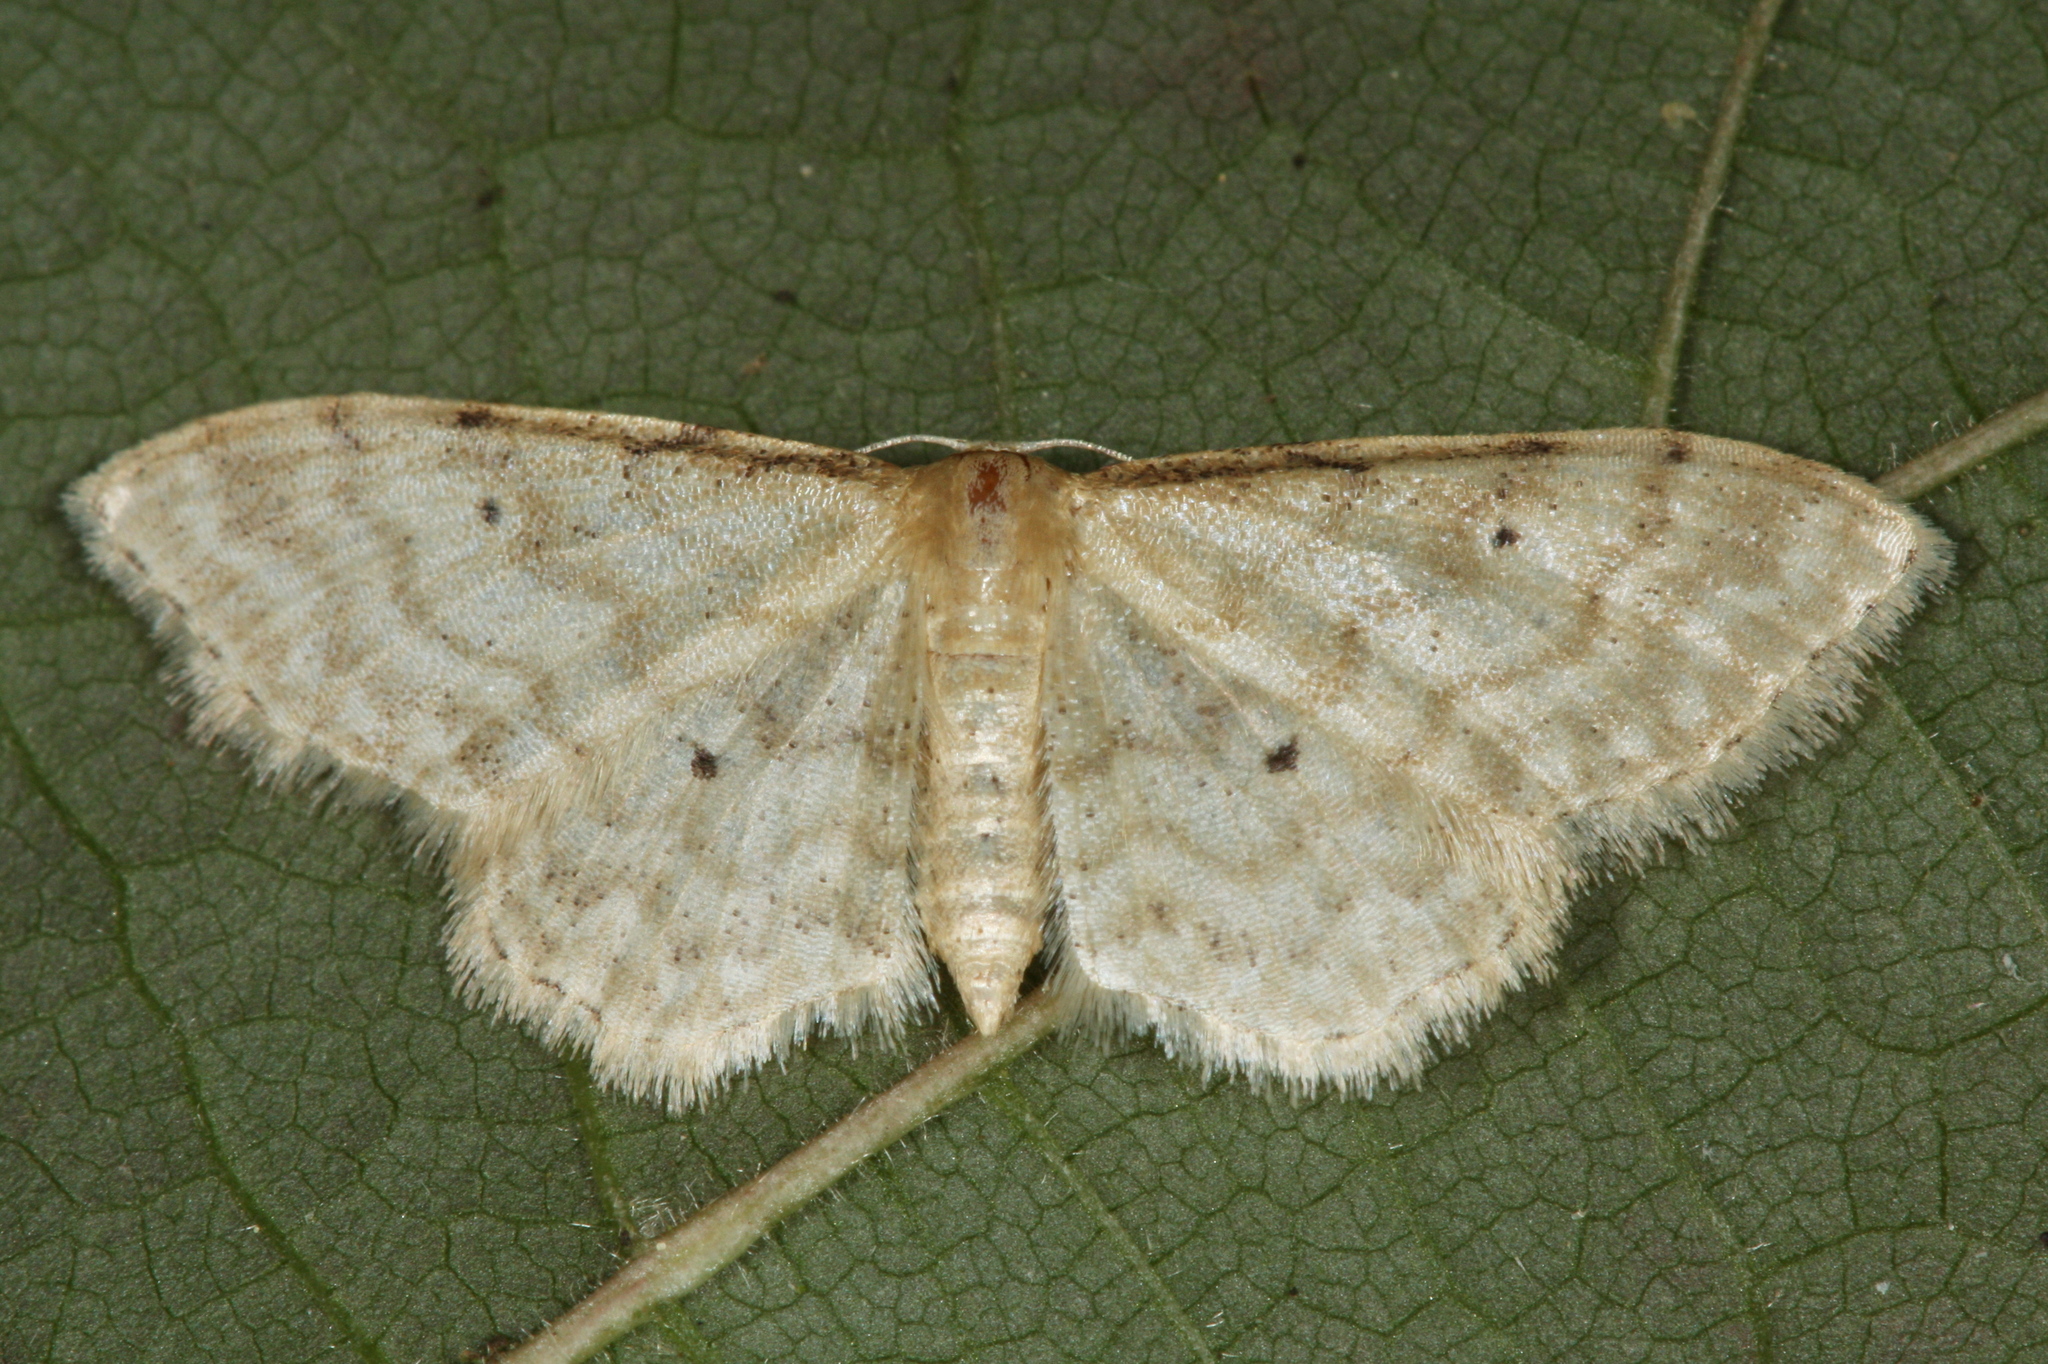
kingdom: Animalia
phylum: Arthropoda
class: Insecta
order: Lepidoptera
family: Geometridae
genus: Idaea
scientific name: Idaea fuscovenosa
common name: Dwarf cream wave
